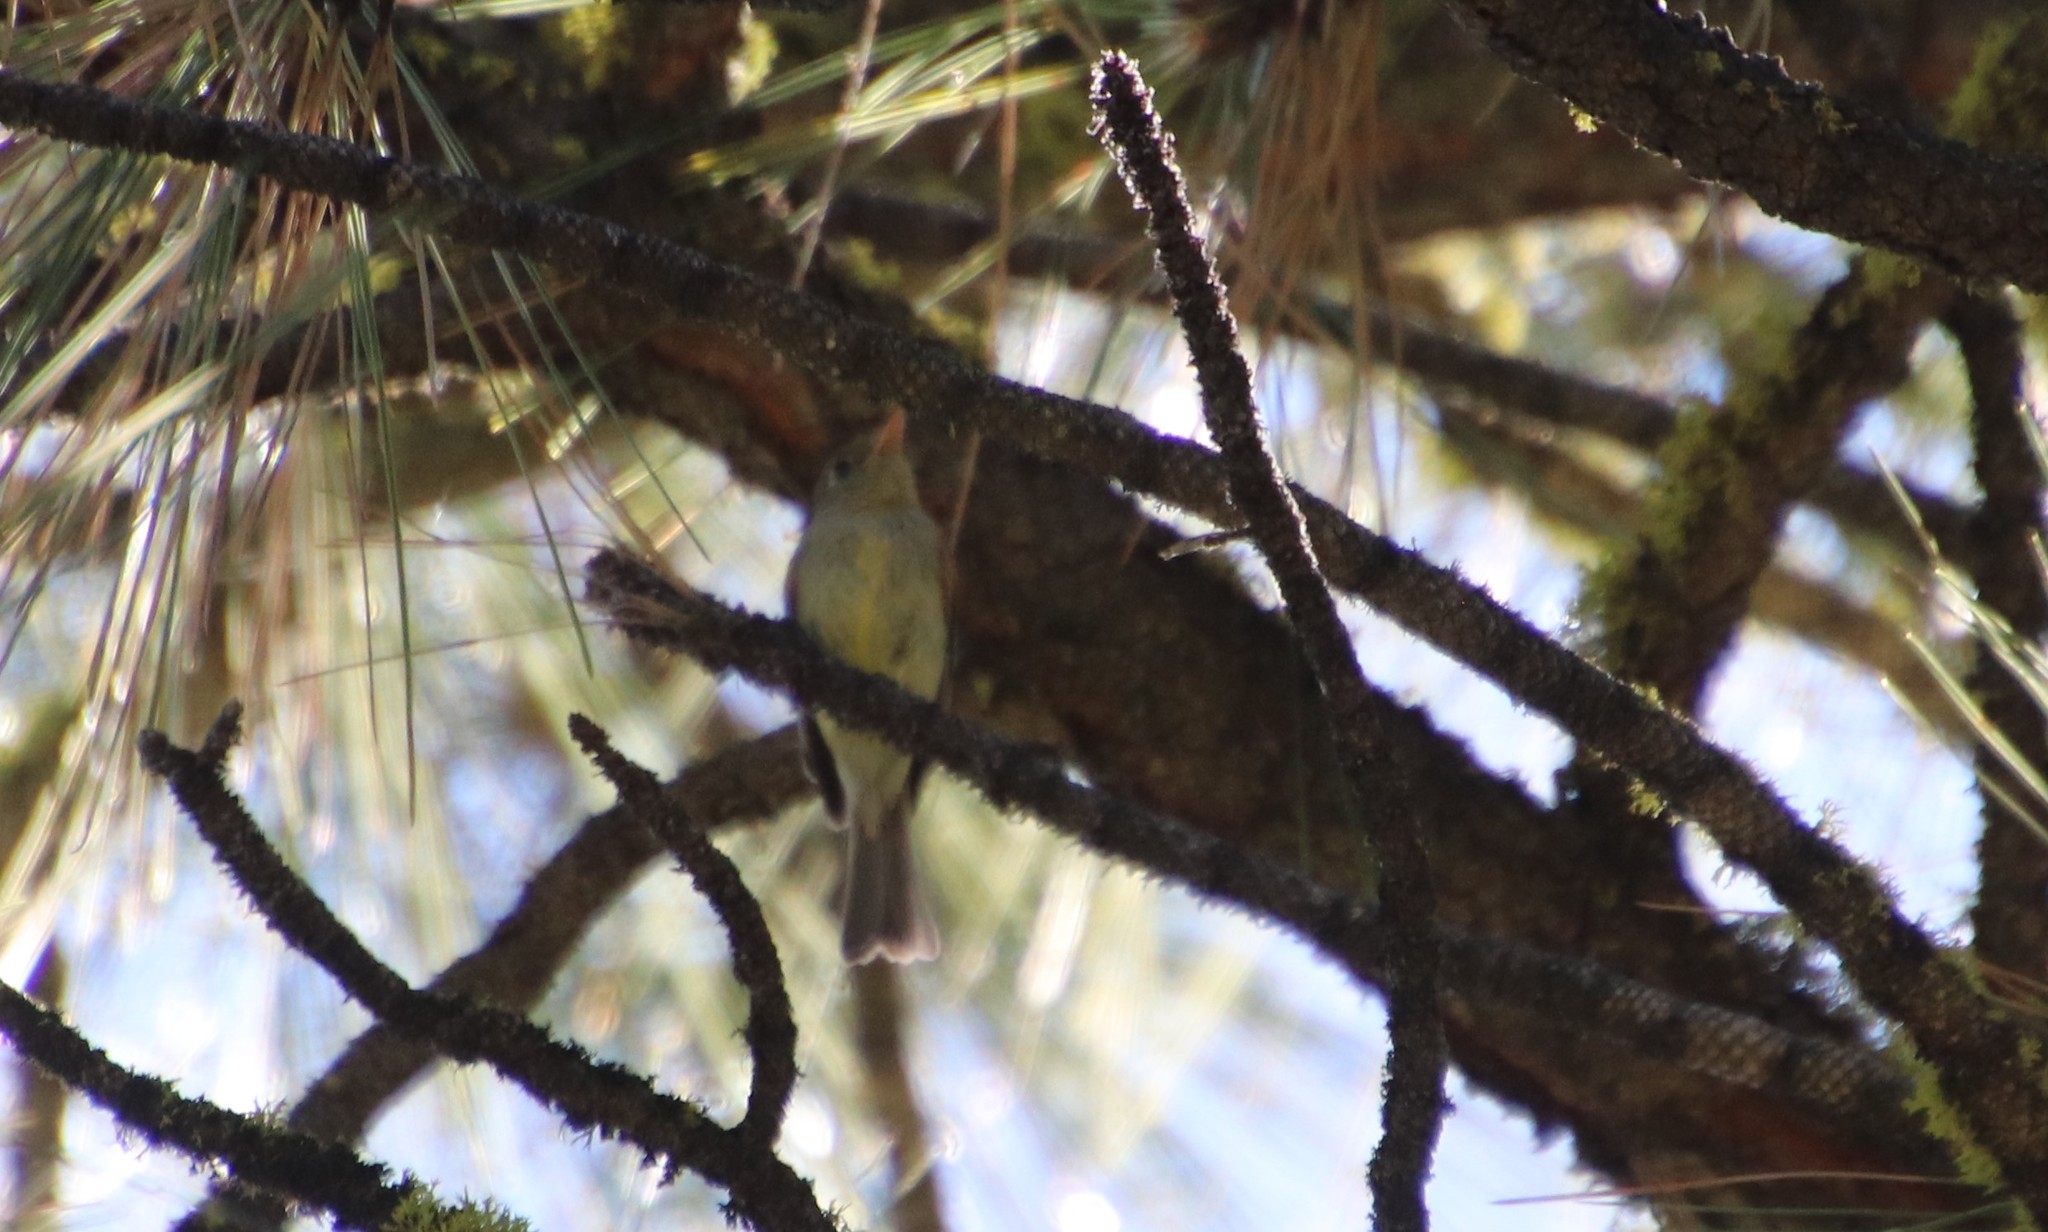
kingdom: Animalia
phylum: Chordata
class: Aves
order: Passeriformes
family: Tyrannidae
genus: Empidonax
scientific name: Empidonax difficilis
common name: Pacific-slope flycatcher
